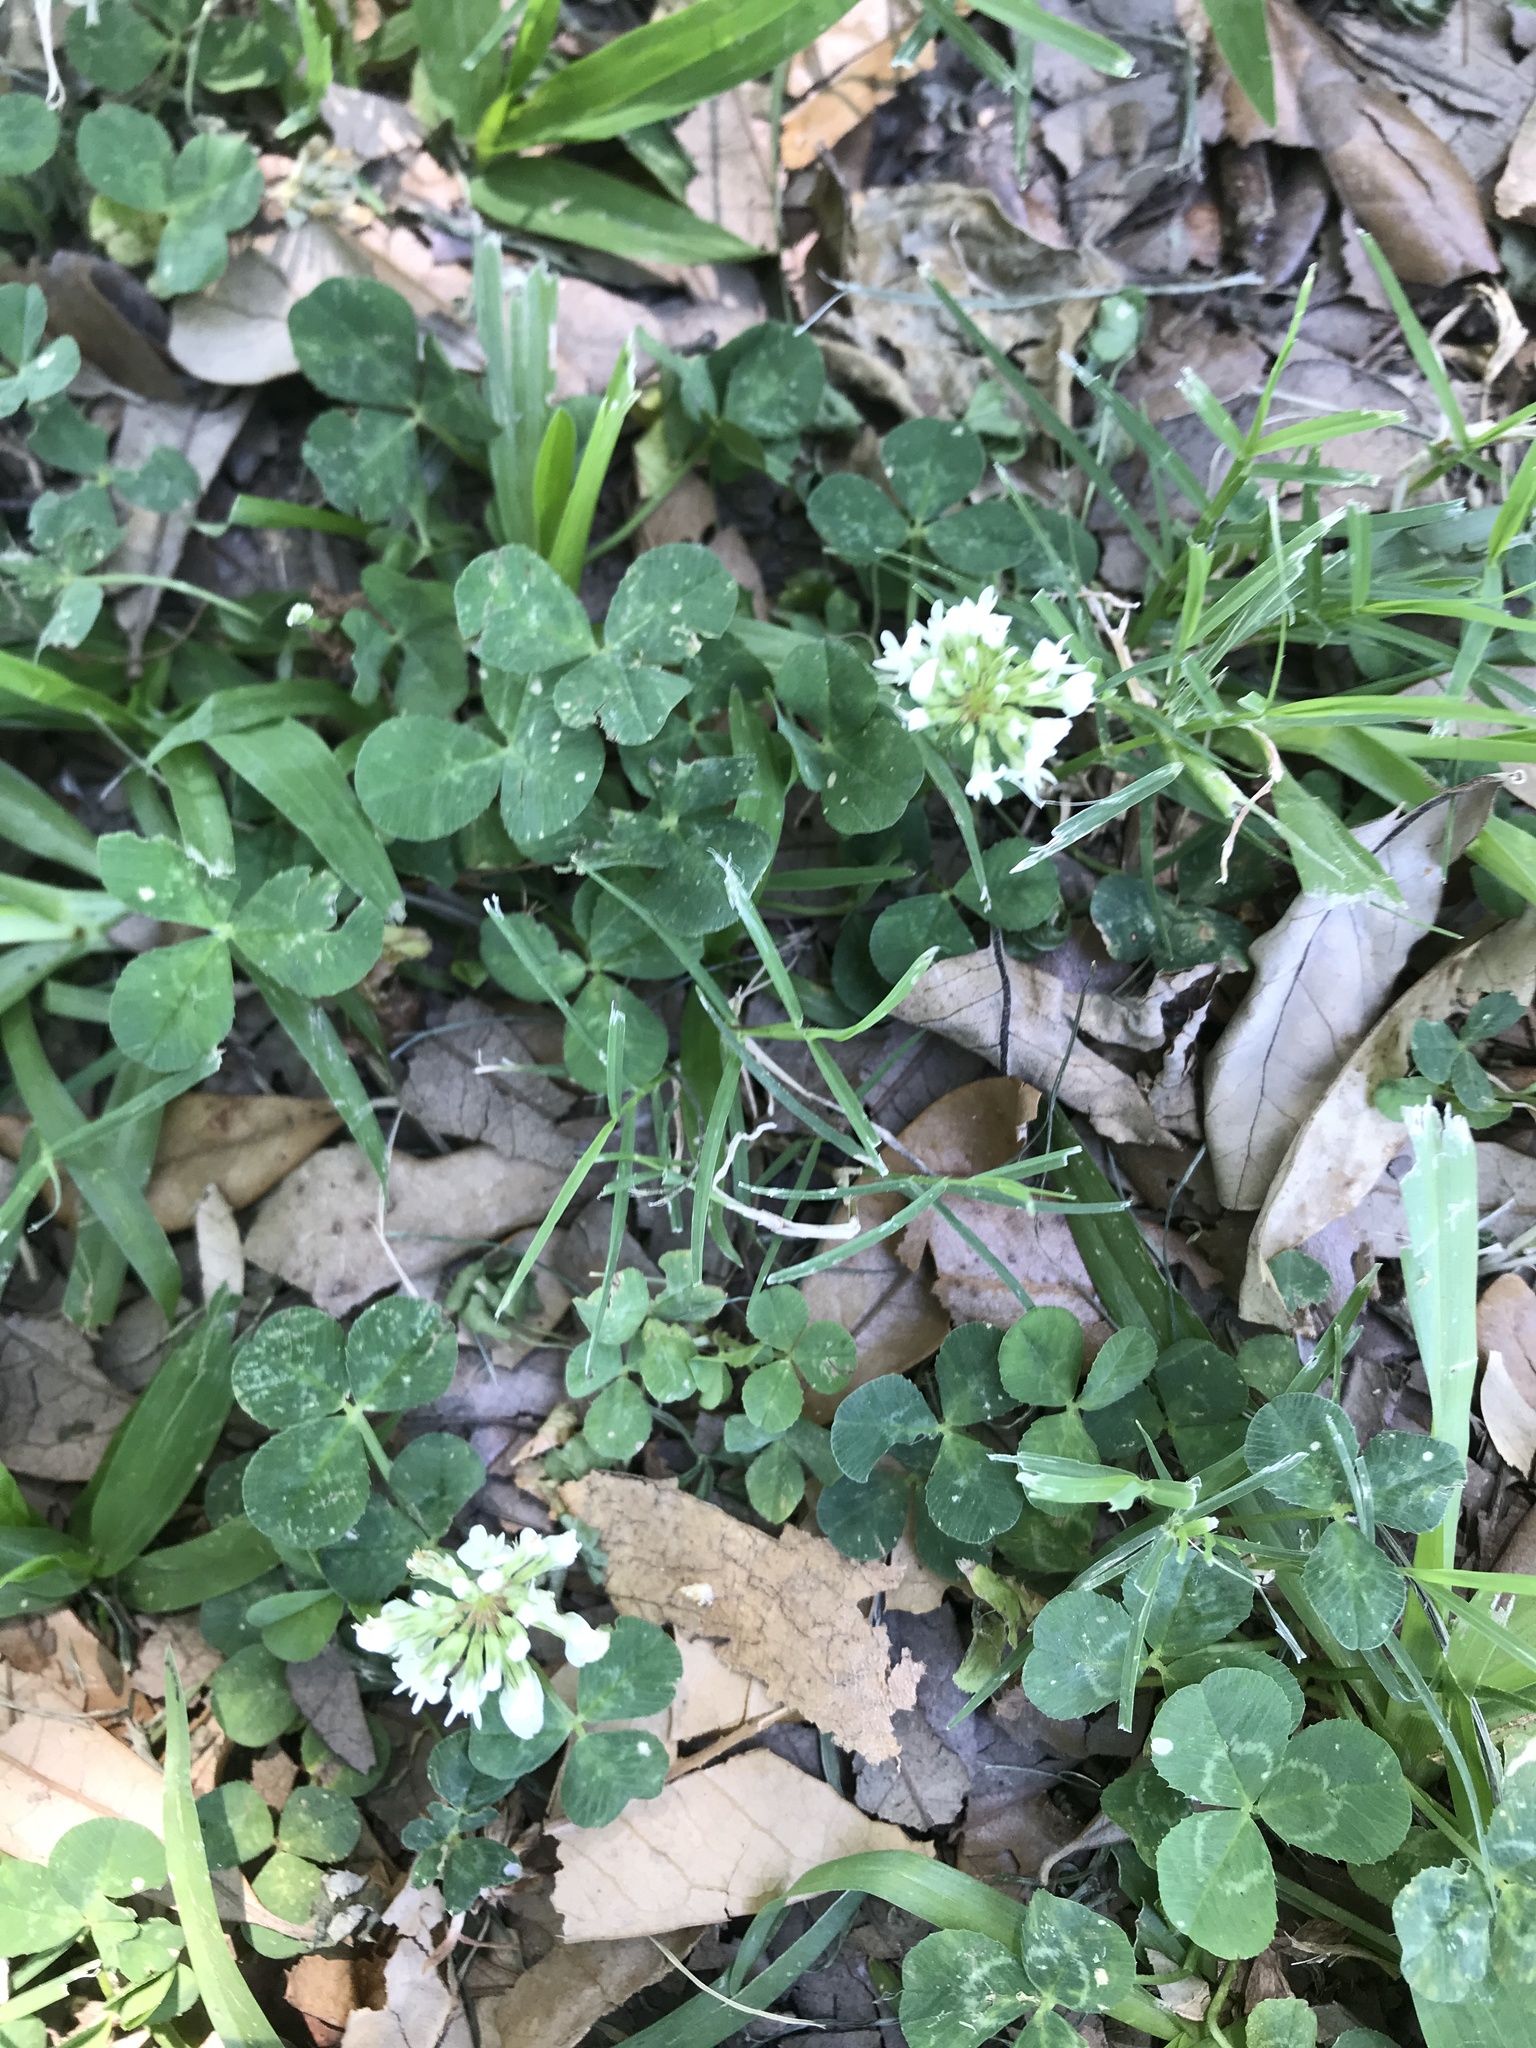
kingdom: Plantae
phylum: Tracheophyta
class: Magnoliopsida
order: Fabales
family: Fabaceae
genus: Trifolium
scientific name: Trifolium repens
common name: White clover
